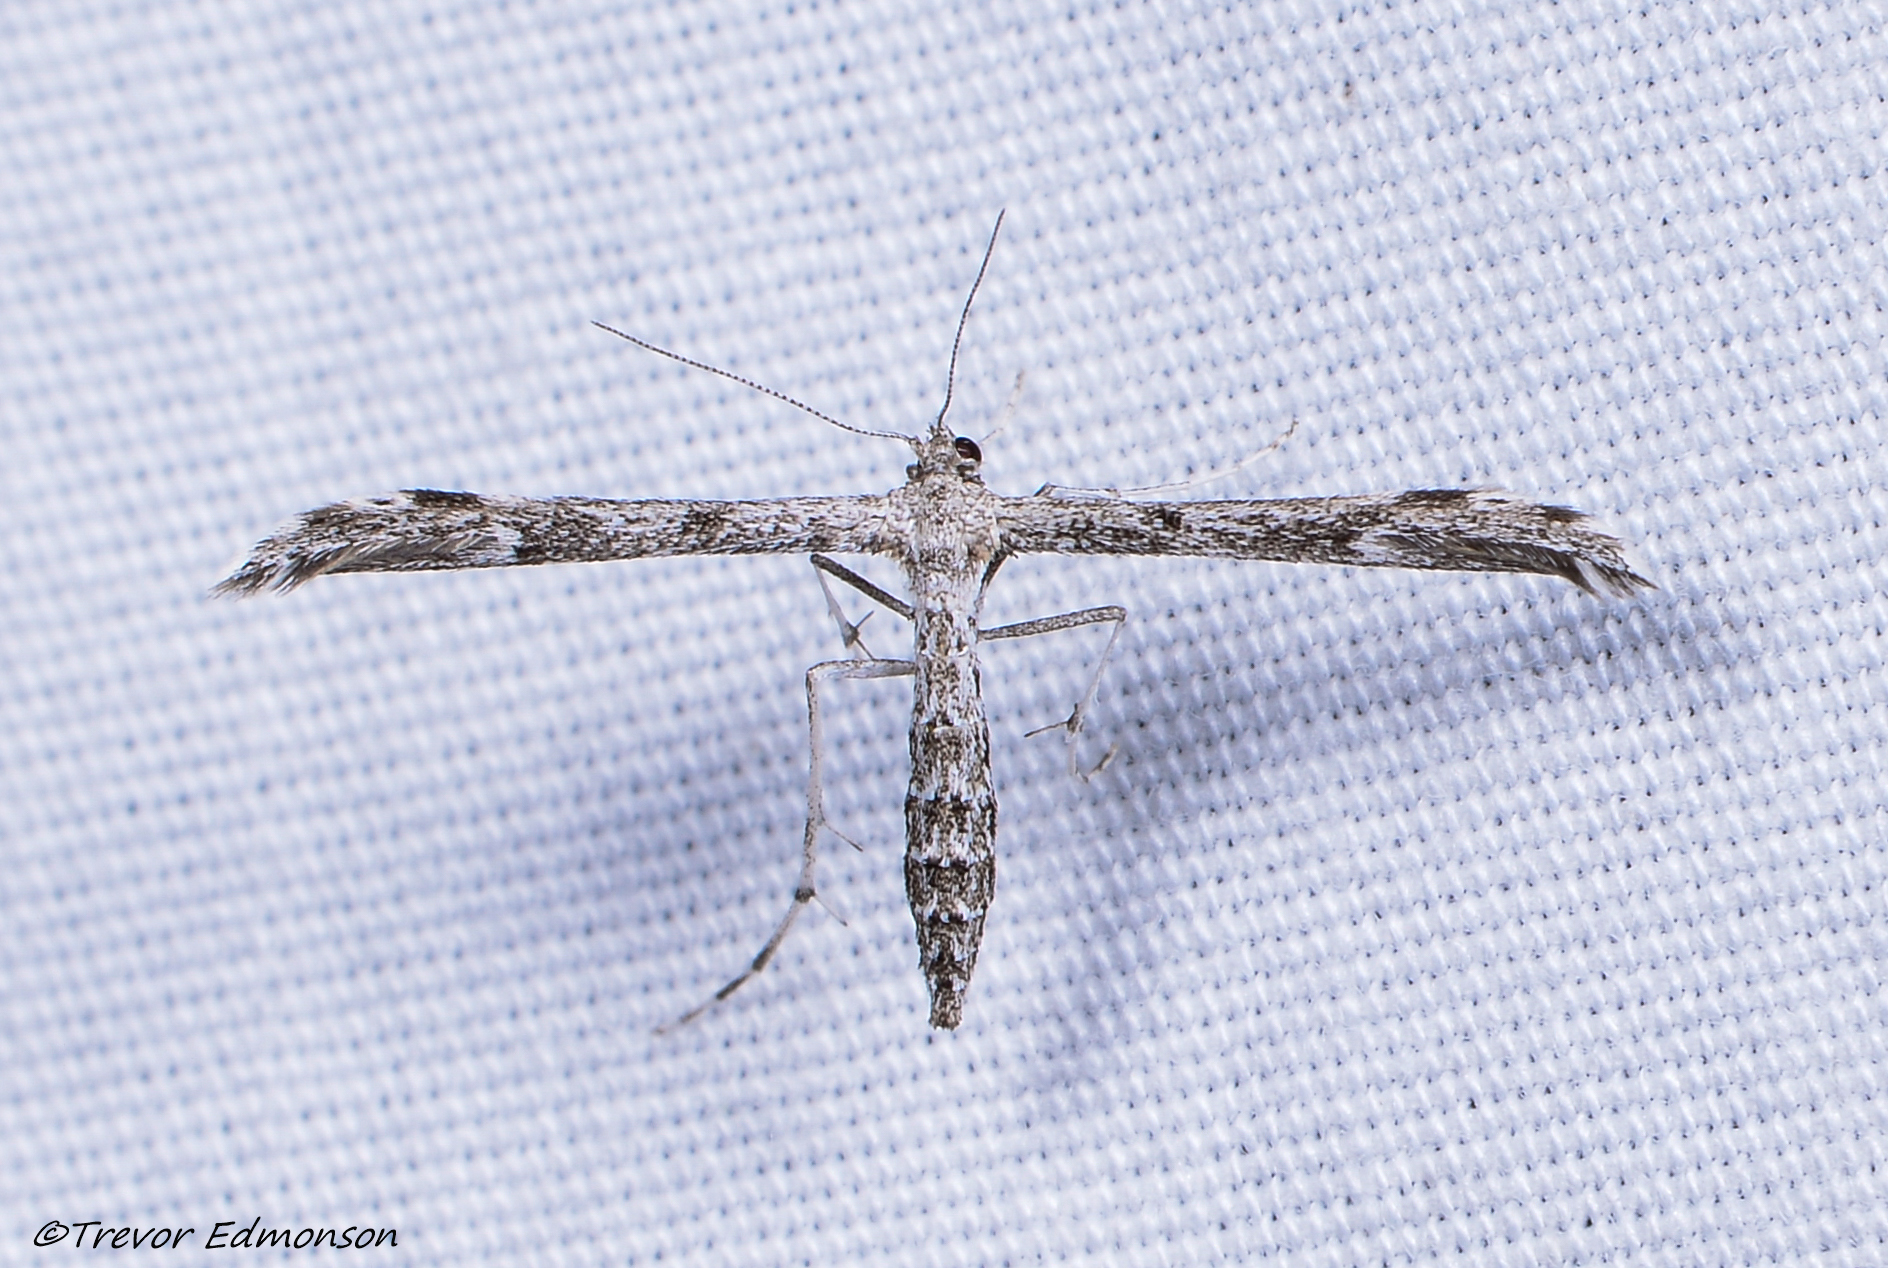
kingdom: Animalia
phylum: Arthropoda
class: Insecta
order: Lepidoptera
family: Pterophoridae
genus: Hellinsia
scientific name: Hellinsia inquinatus
